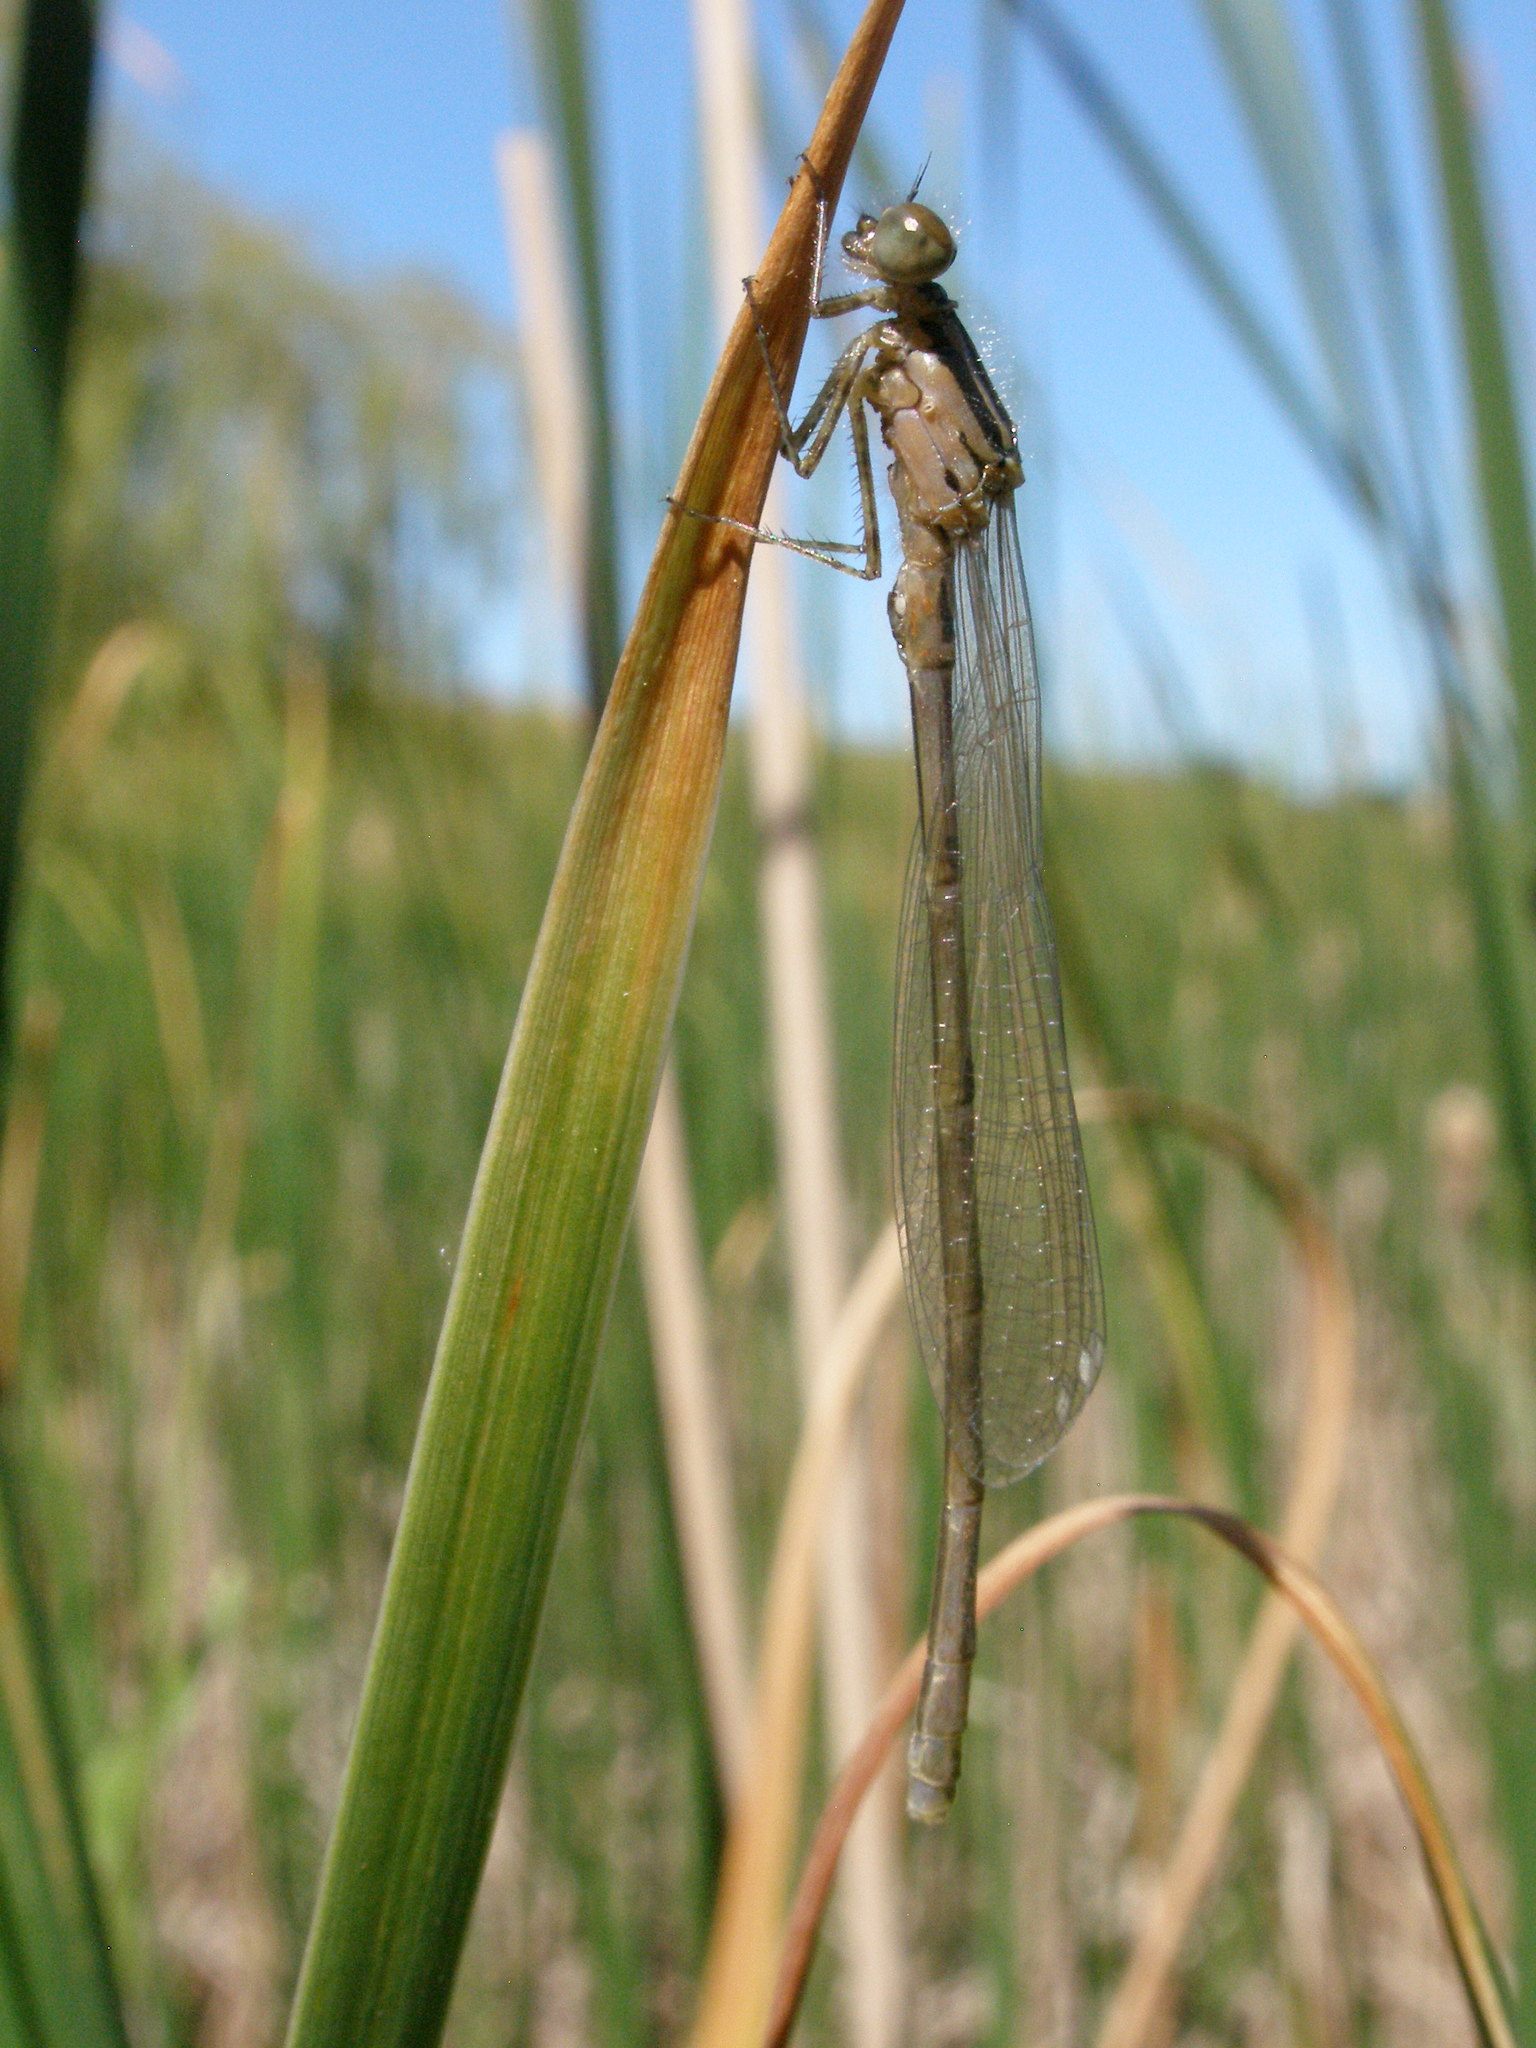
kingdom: Animalia
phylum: Arthropoda
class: Insecta
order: Odonata
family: Coenagrionidae
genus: Coenagrion
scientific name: Coenagrion puella
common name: Azure damselfly
